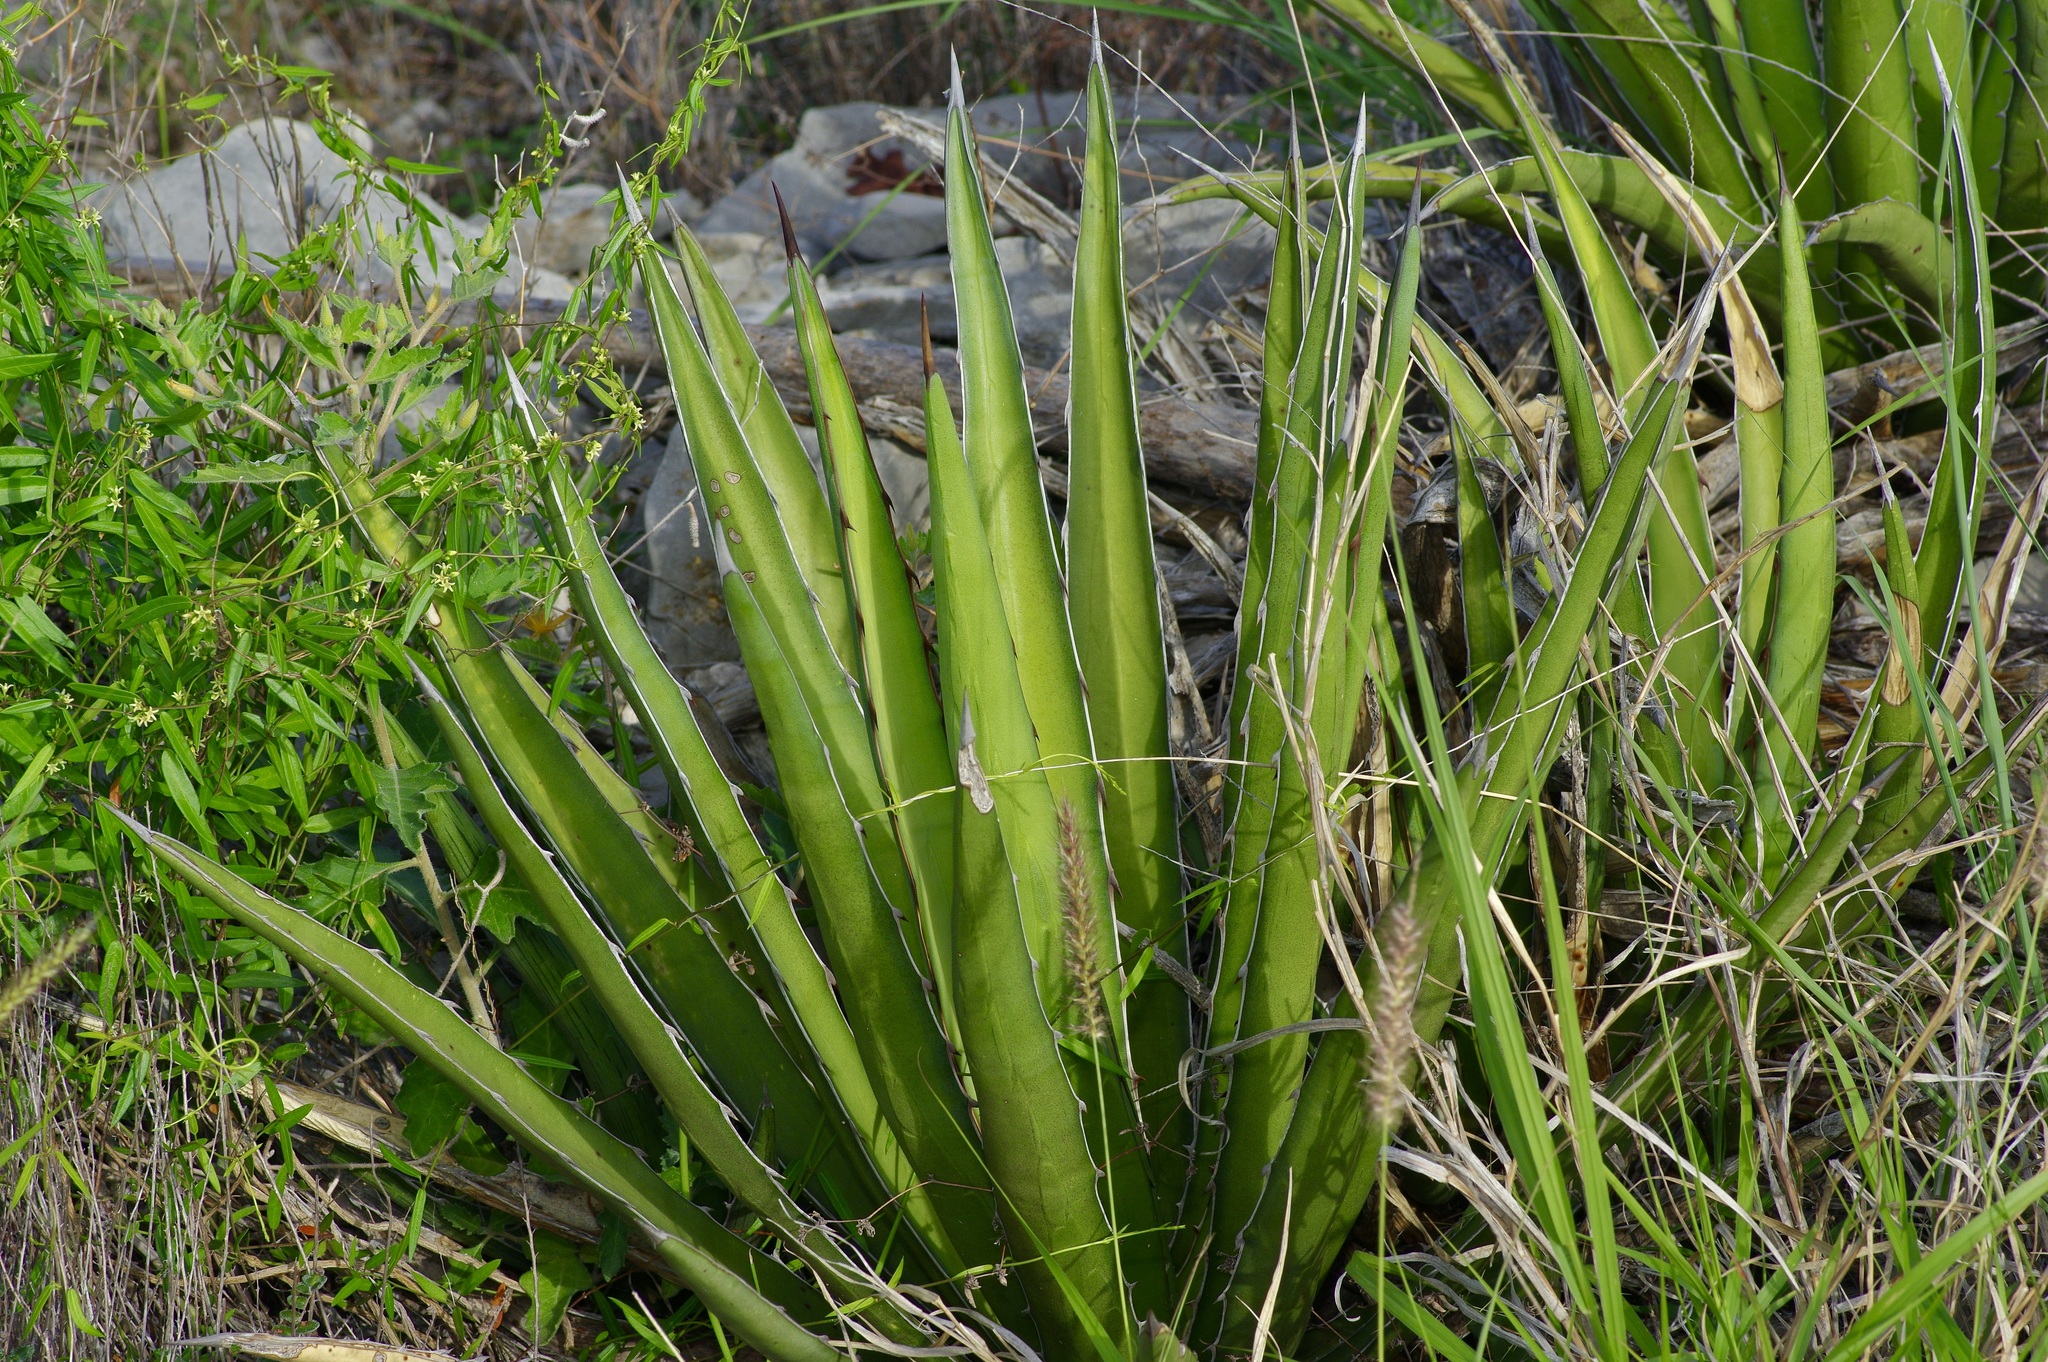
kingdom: Plantae
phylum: Tracheophyta
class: Liliopsida
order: Asparagales
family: Asparagaceae
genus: Agave
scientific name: Agave lechuguilla
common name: Lecheguilla agave
